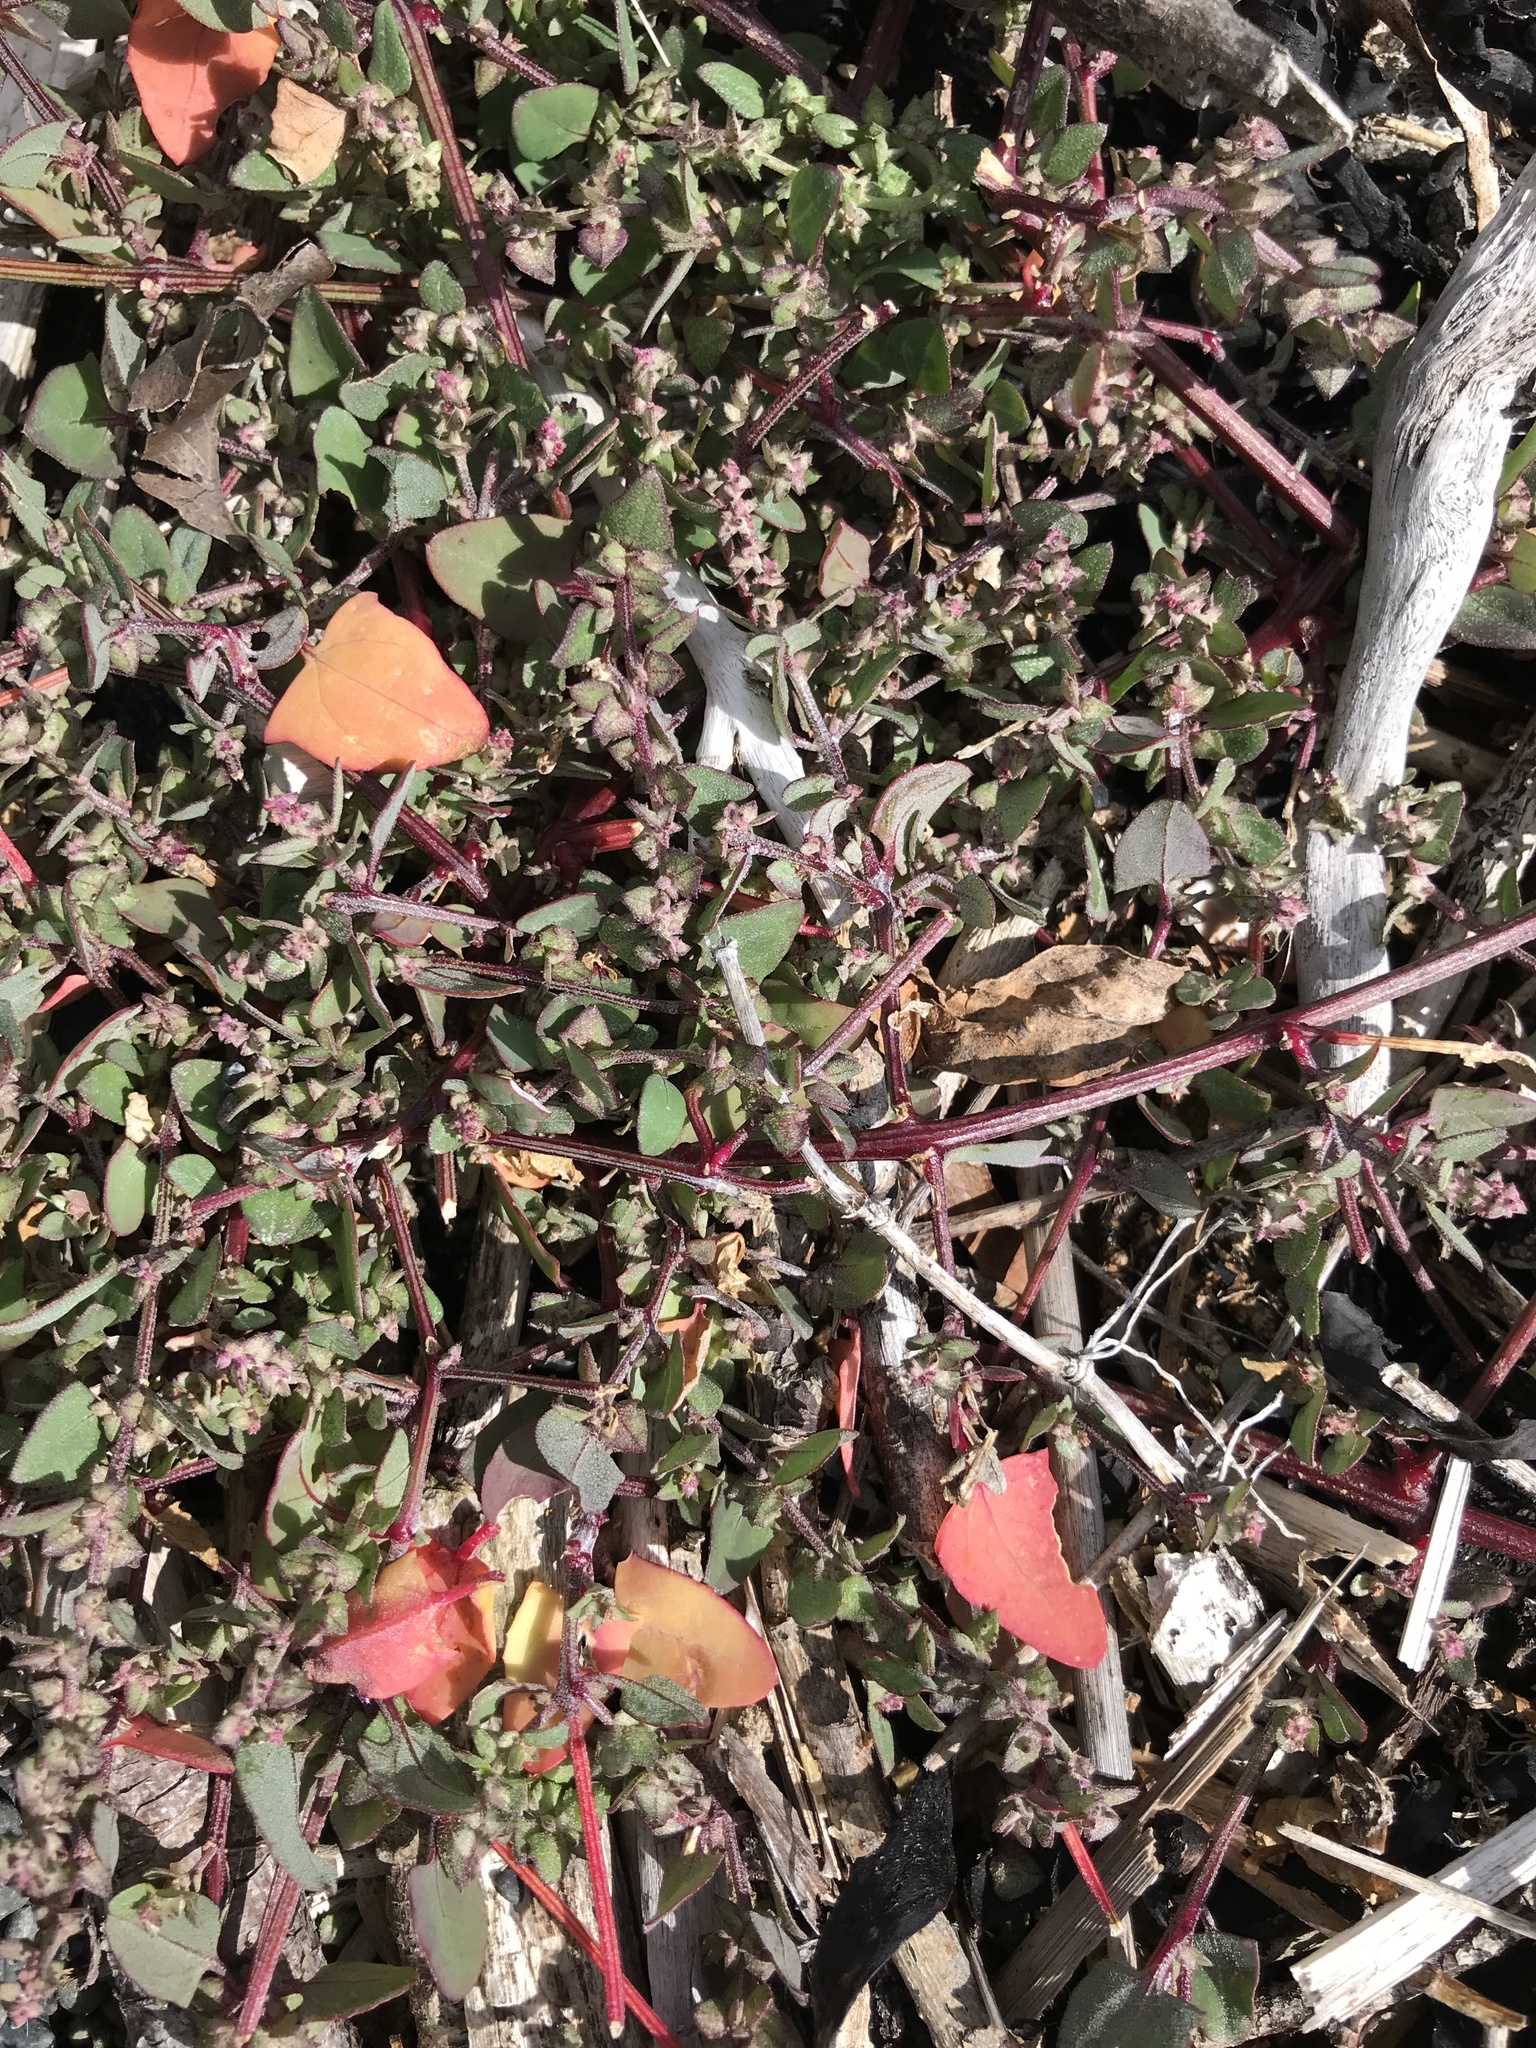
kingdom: Plantae
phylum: Tracheophyta
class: Magnoliopsida
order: Caryophyllales
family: Amaranthaceae
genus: Atriplex
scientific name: Atriplex prostrata
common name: Spear-leaved orache
